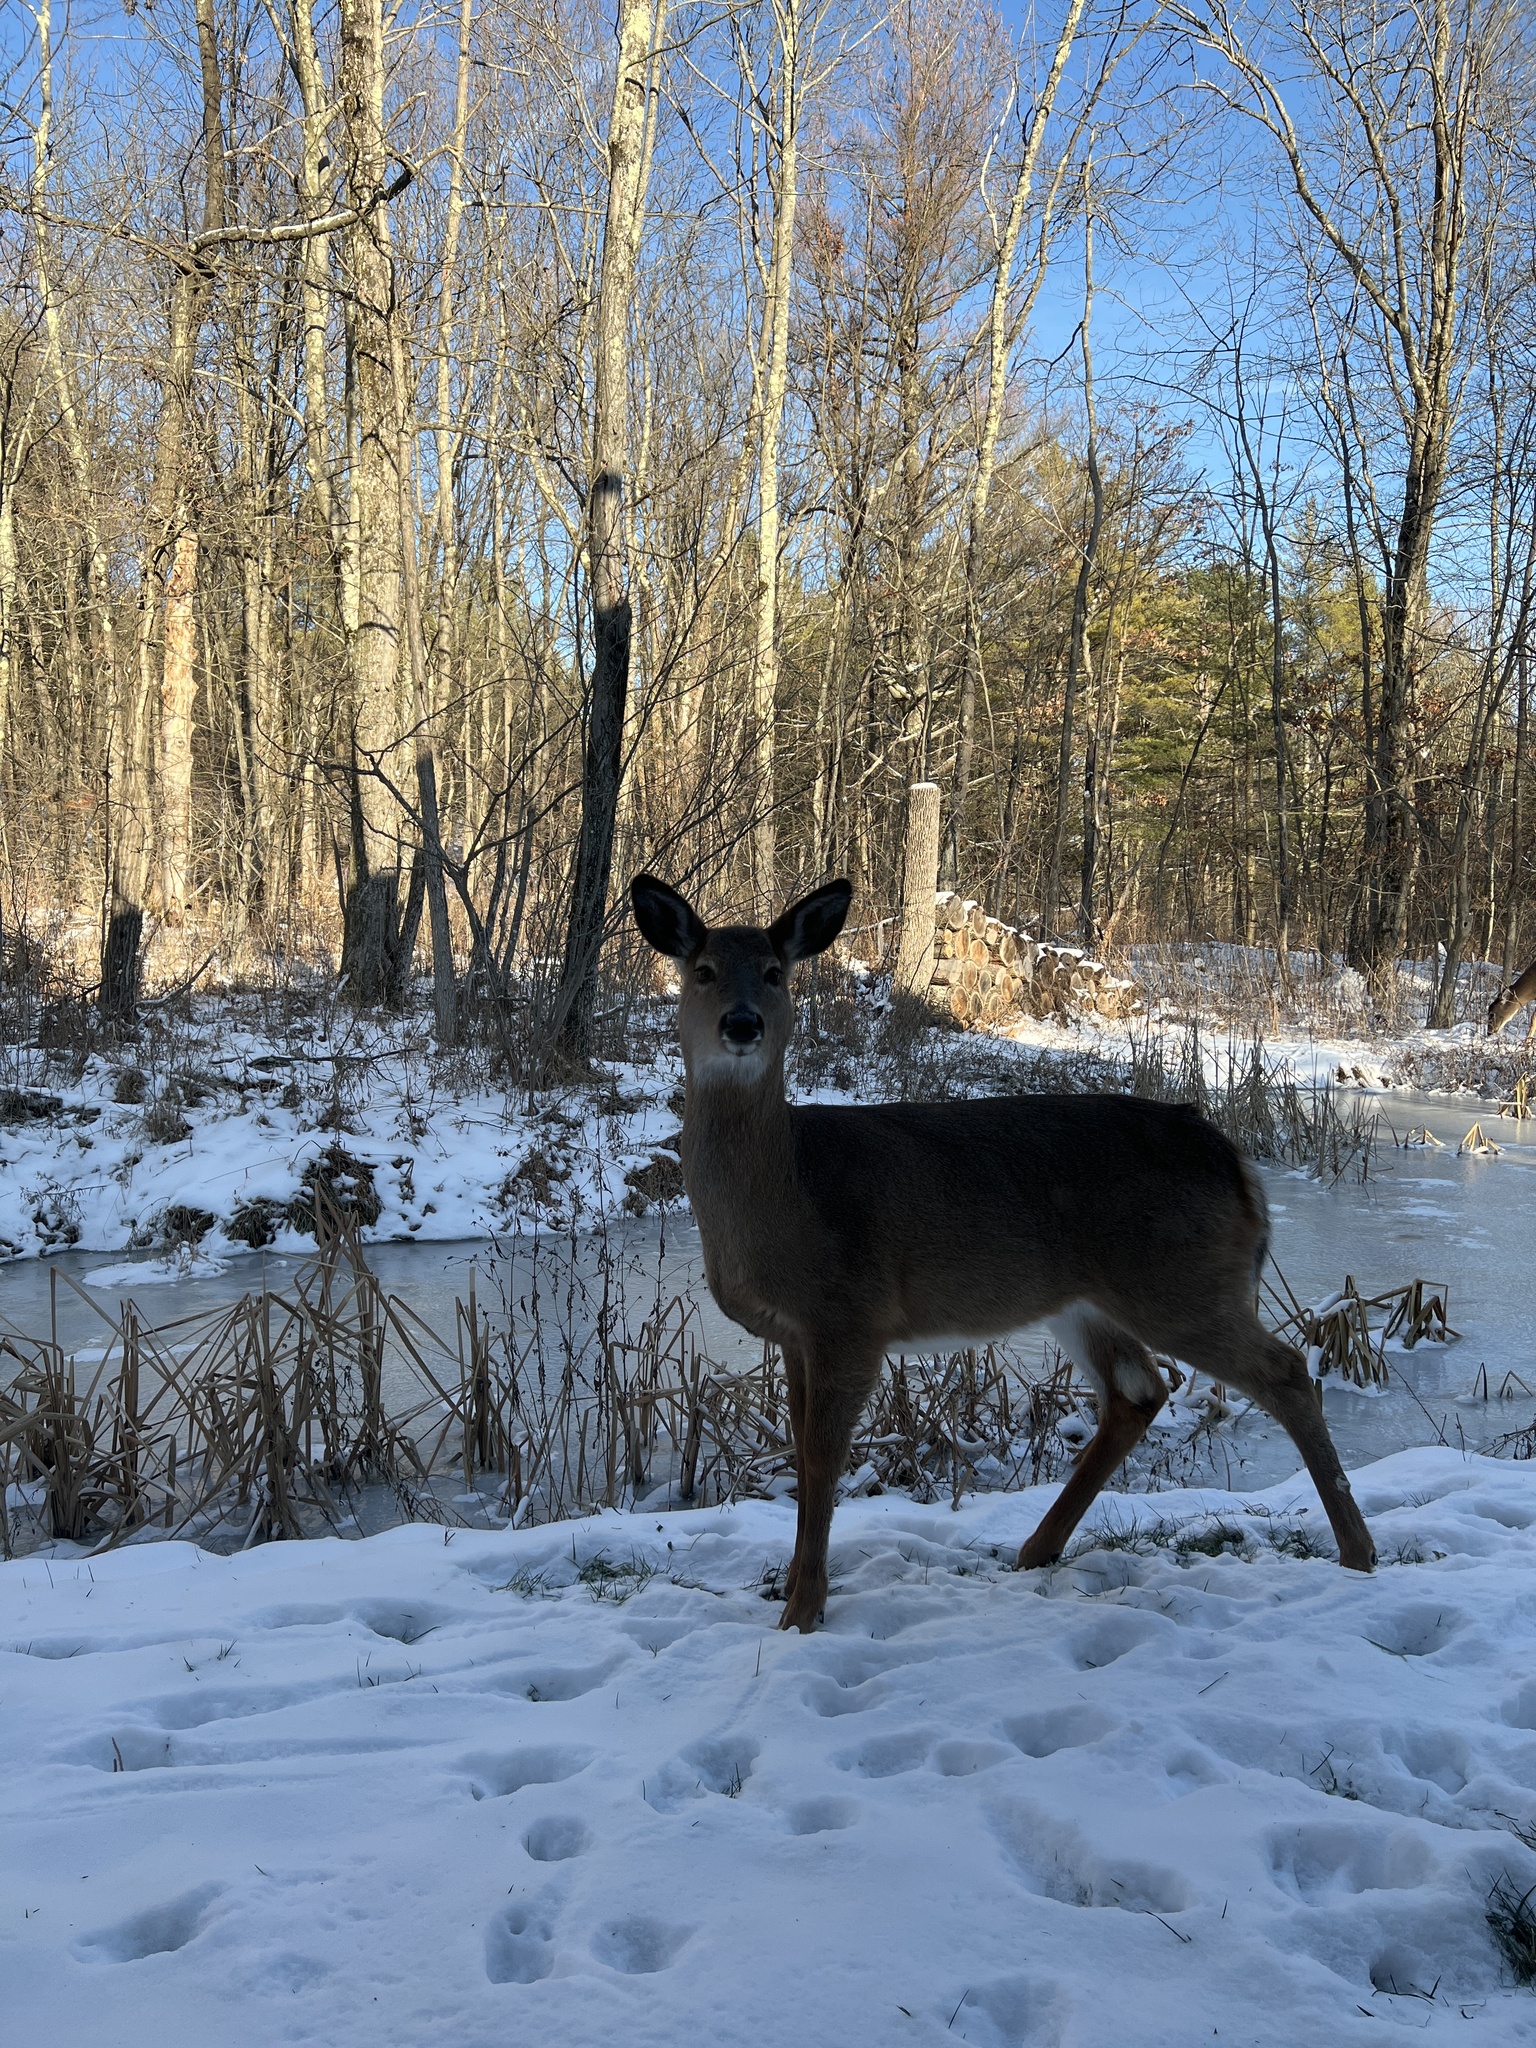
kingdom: Animalia
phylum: Chordata
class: Mammalia
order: Artiodactyla
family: Cervidae
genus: Odocoileus
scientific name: Odocoileus virginianus
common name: White-tailed deer
